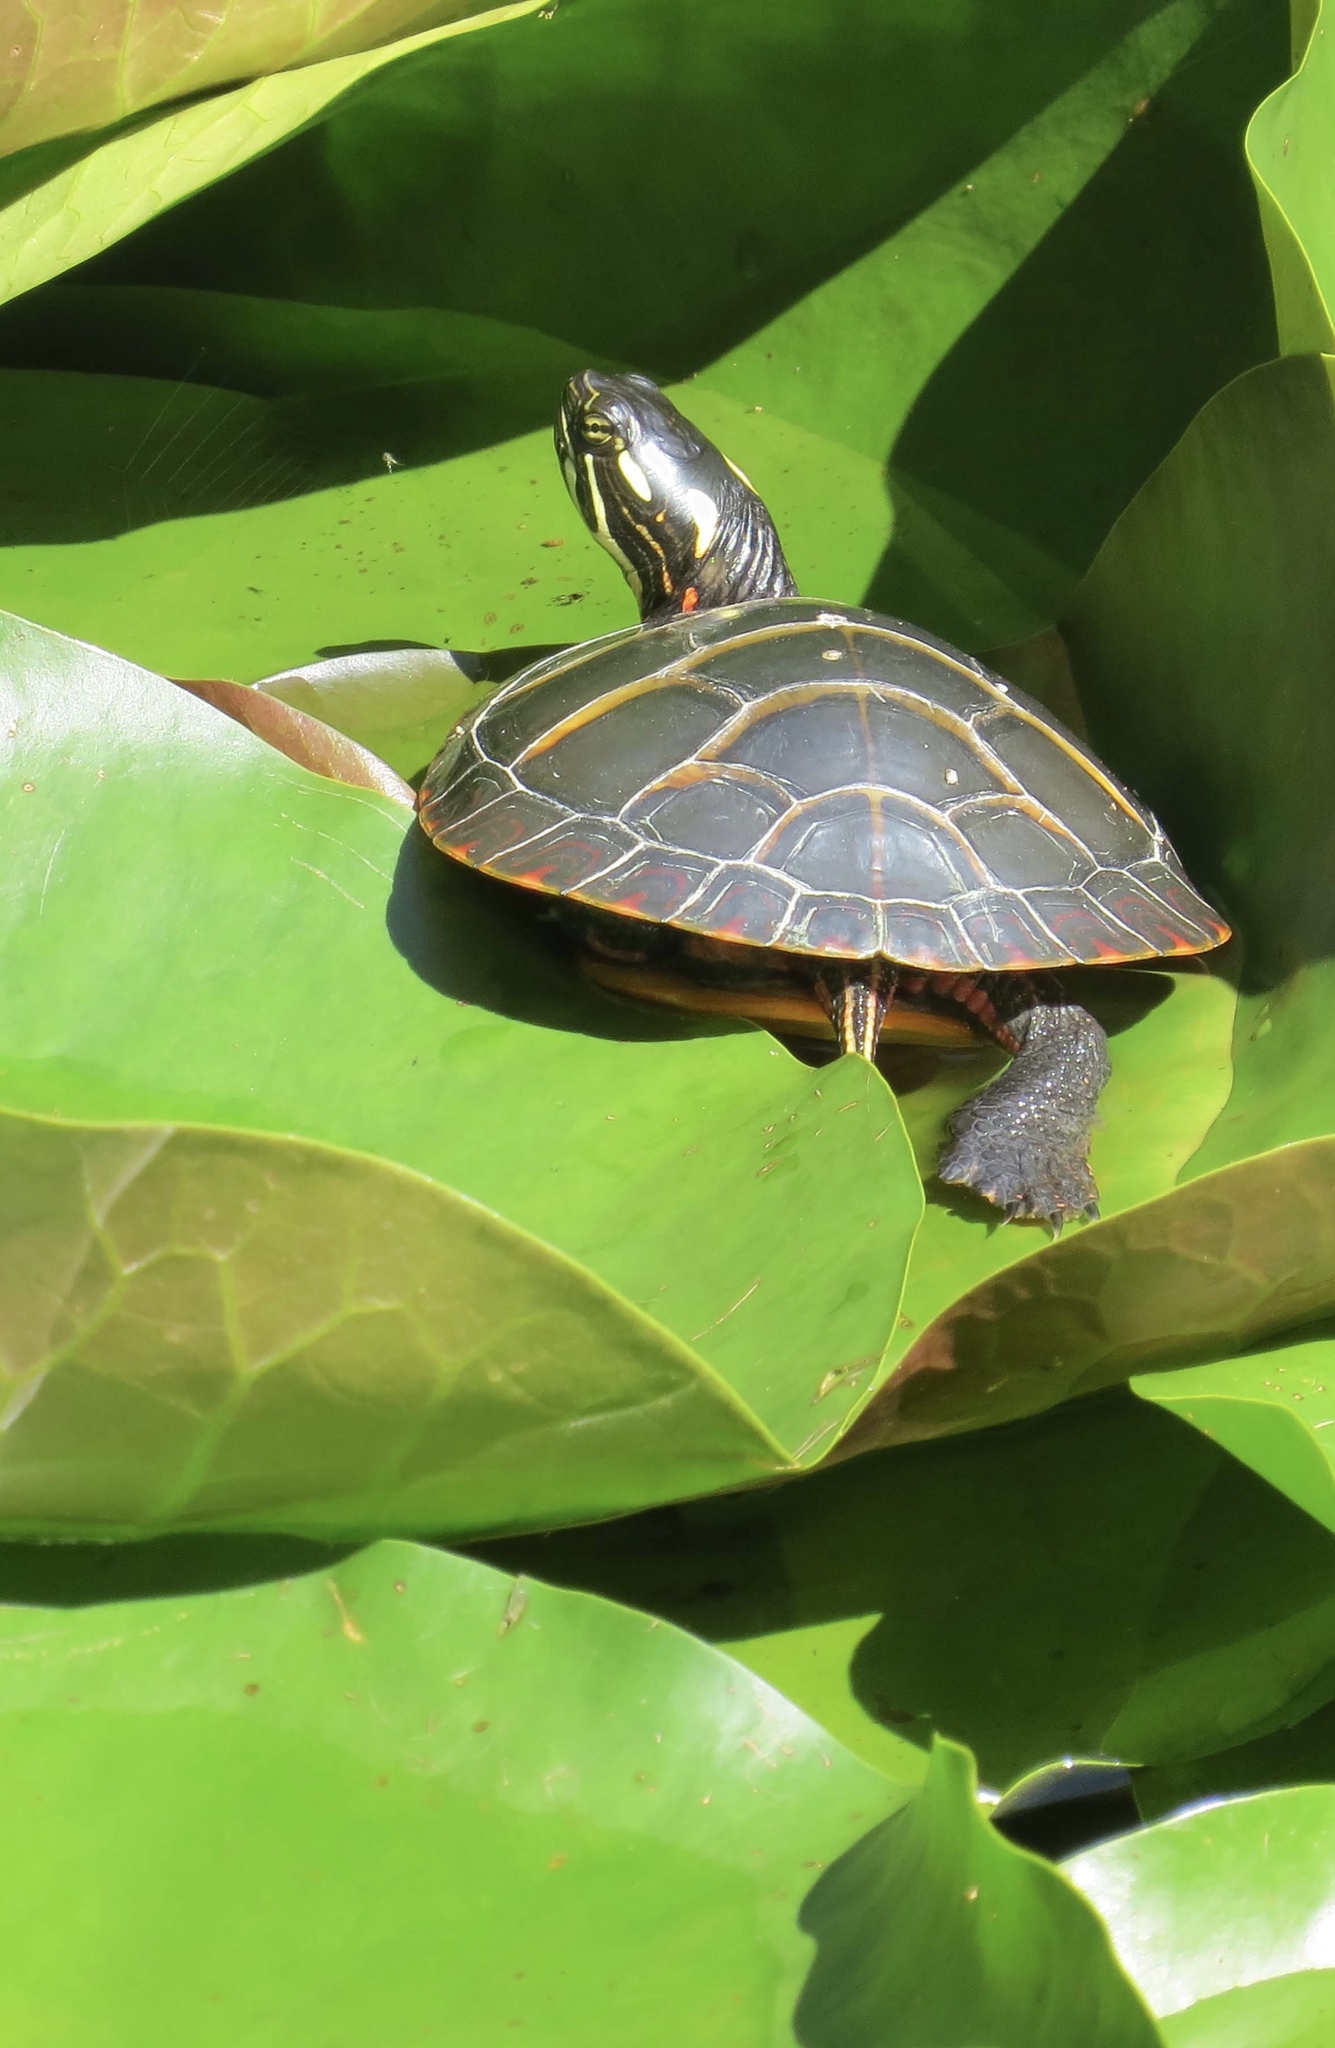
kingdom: Animalia
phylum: Chordata
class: Testudines
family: Emydidae
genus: Chrysemys
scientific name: Chrysemys picta
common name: Painted turtle
